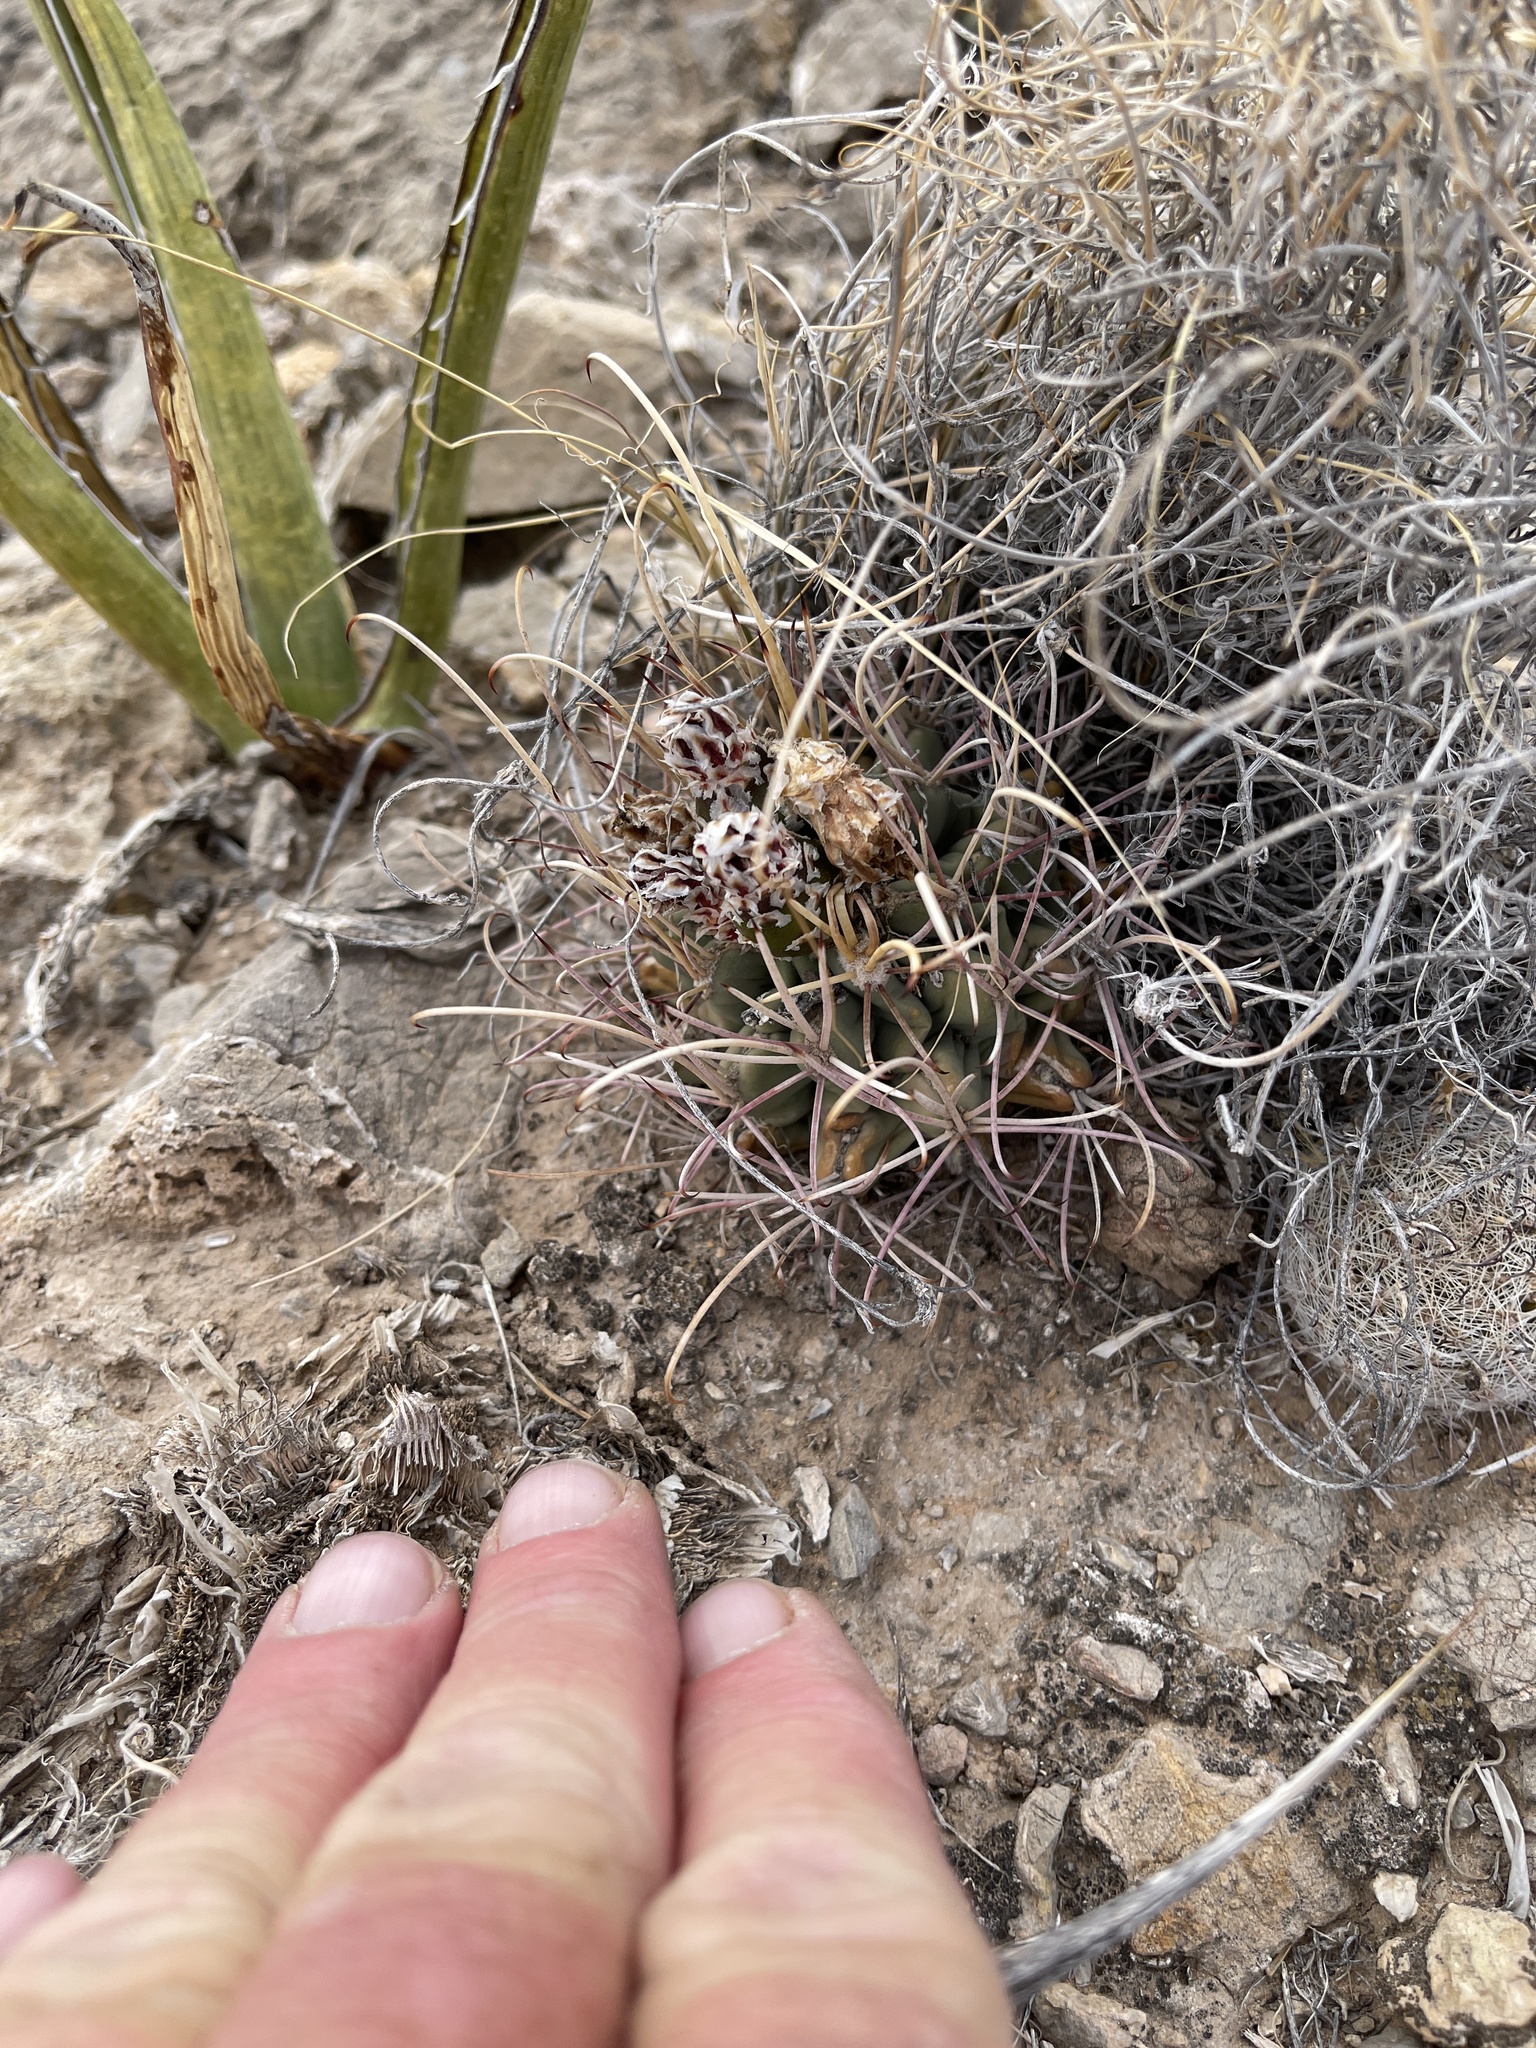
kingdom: Plantae
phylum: Tracheophyta
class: Magnoliopsida
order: Caryophyllales
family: Cactaceae
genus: Ferocactus
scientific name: Ferocactus uncinatus
